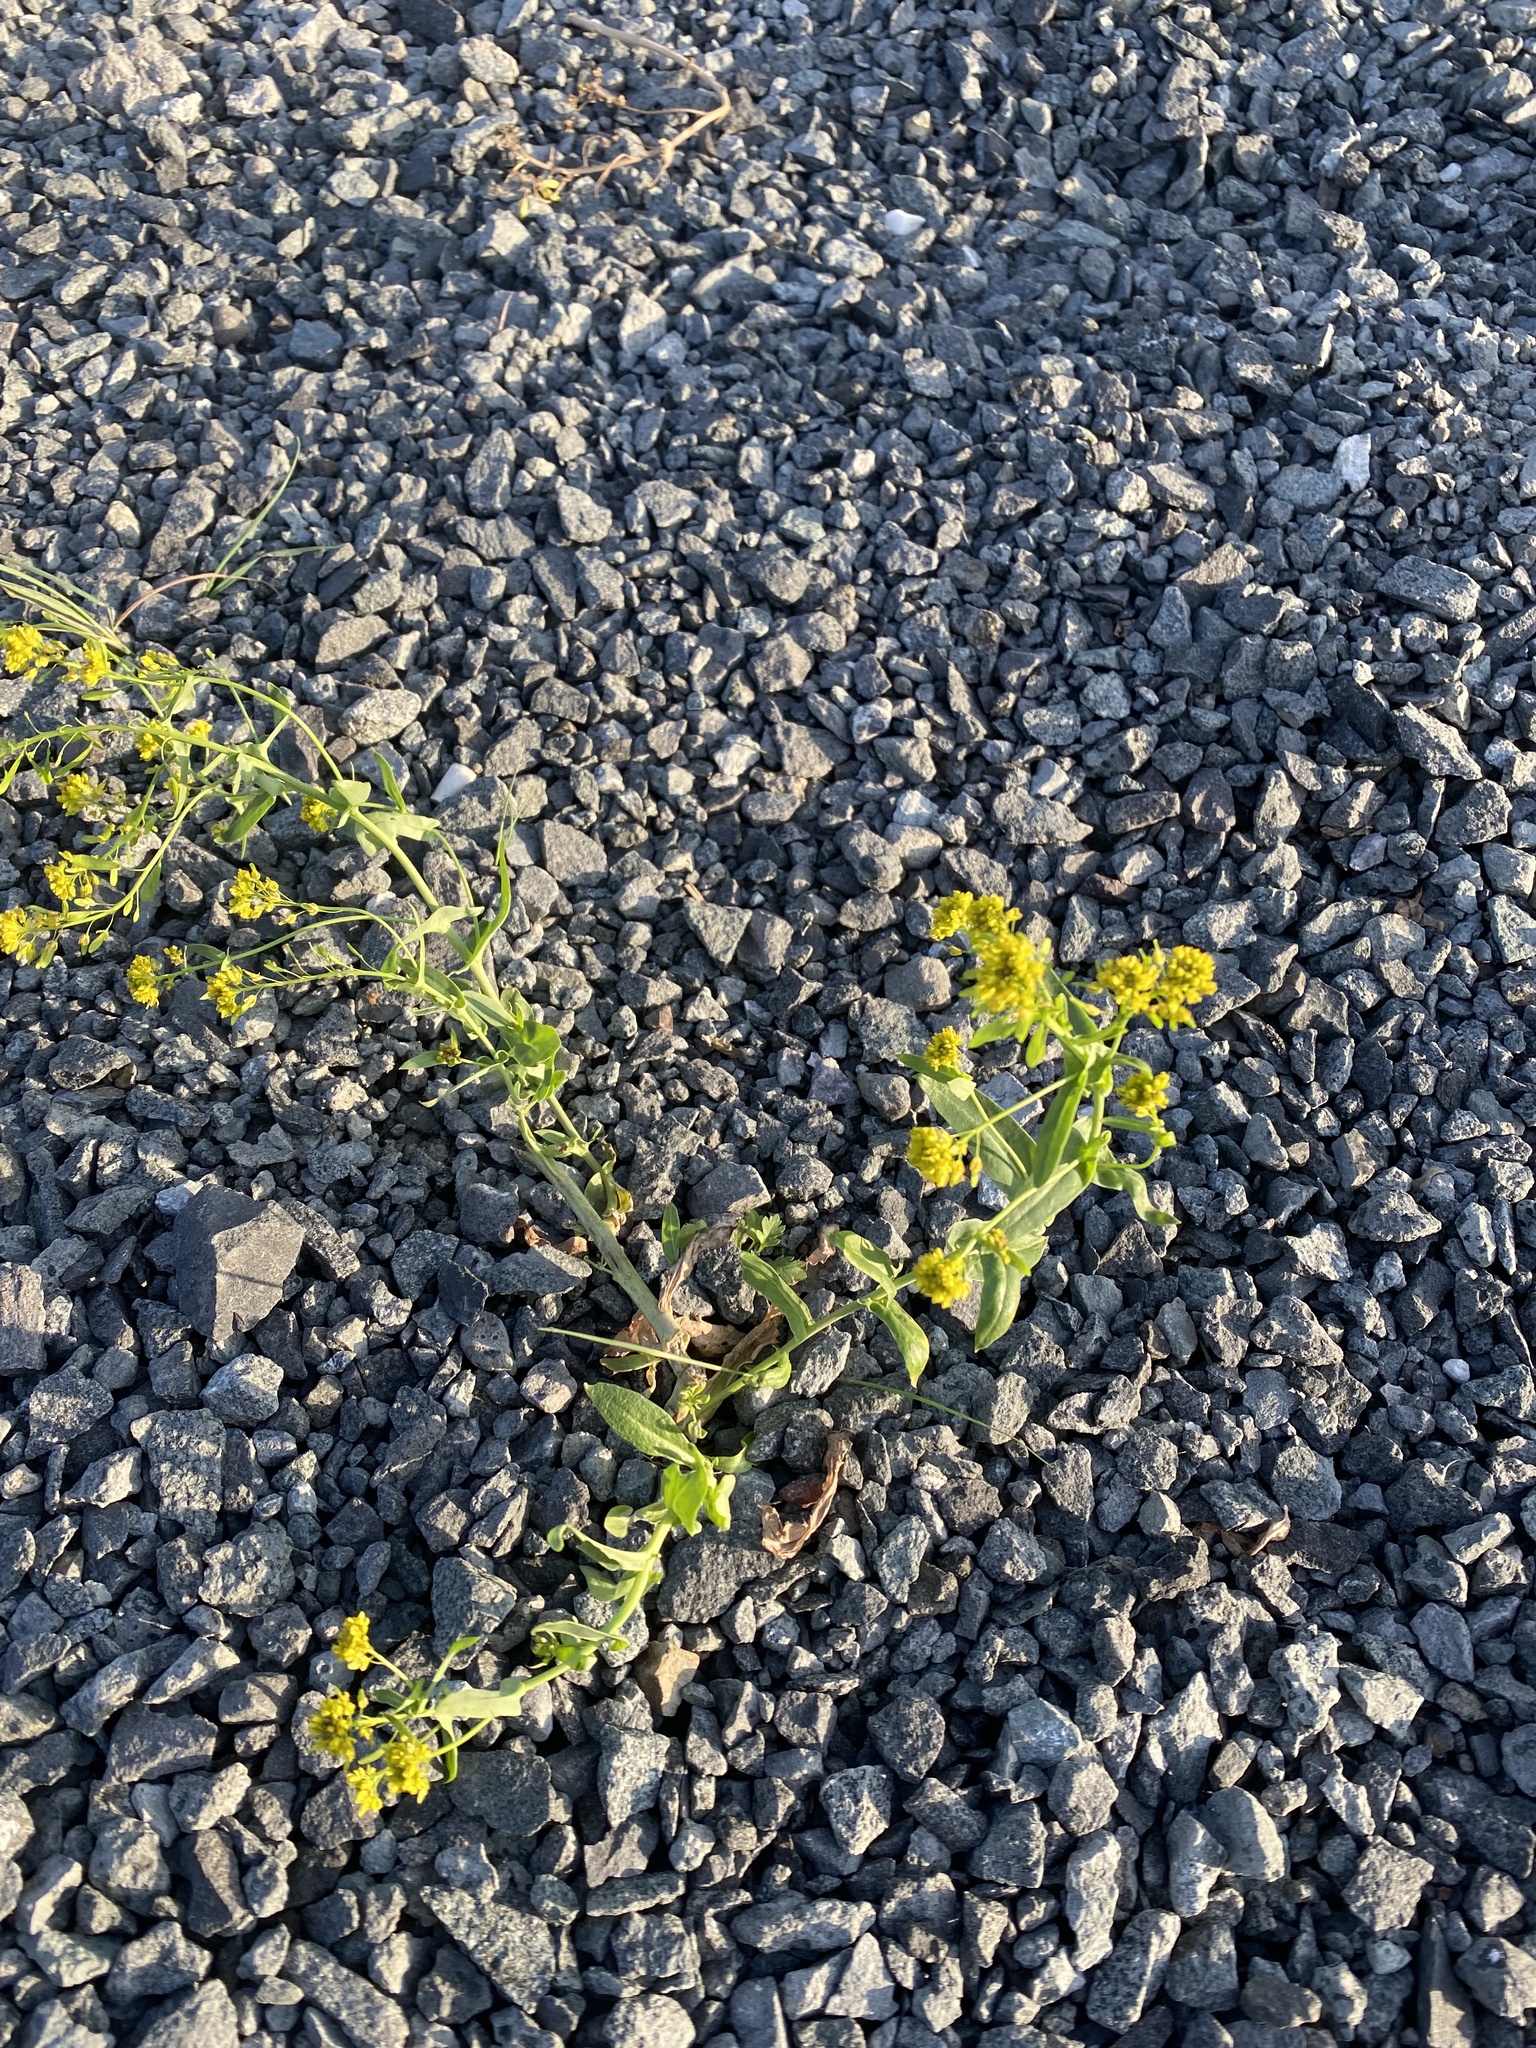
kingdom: Plantae
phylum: Tracheophyta
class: Magnoliopsida
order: Brassicales
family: Brassicaceae
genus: Isatis
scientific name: Isatis jacutensis
